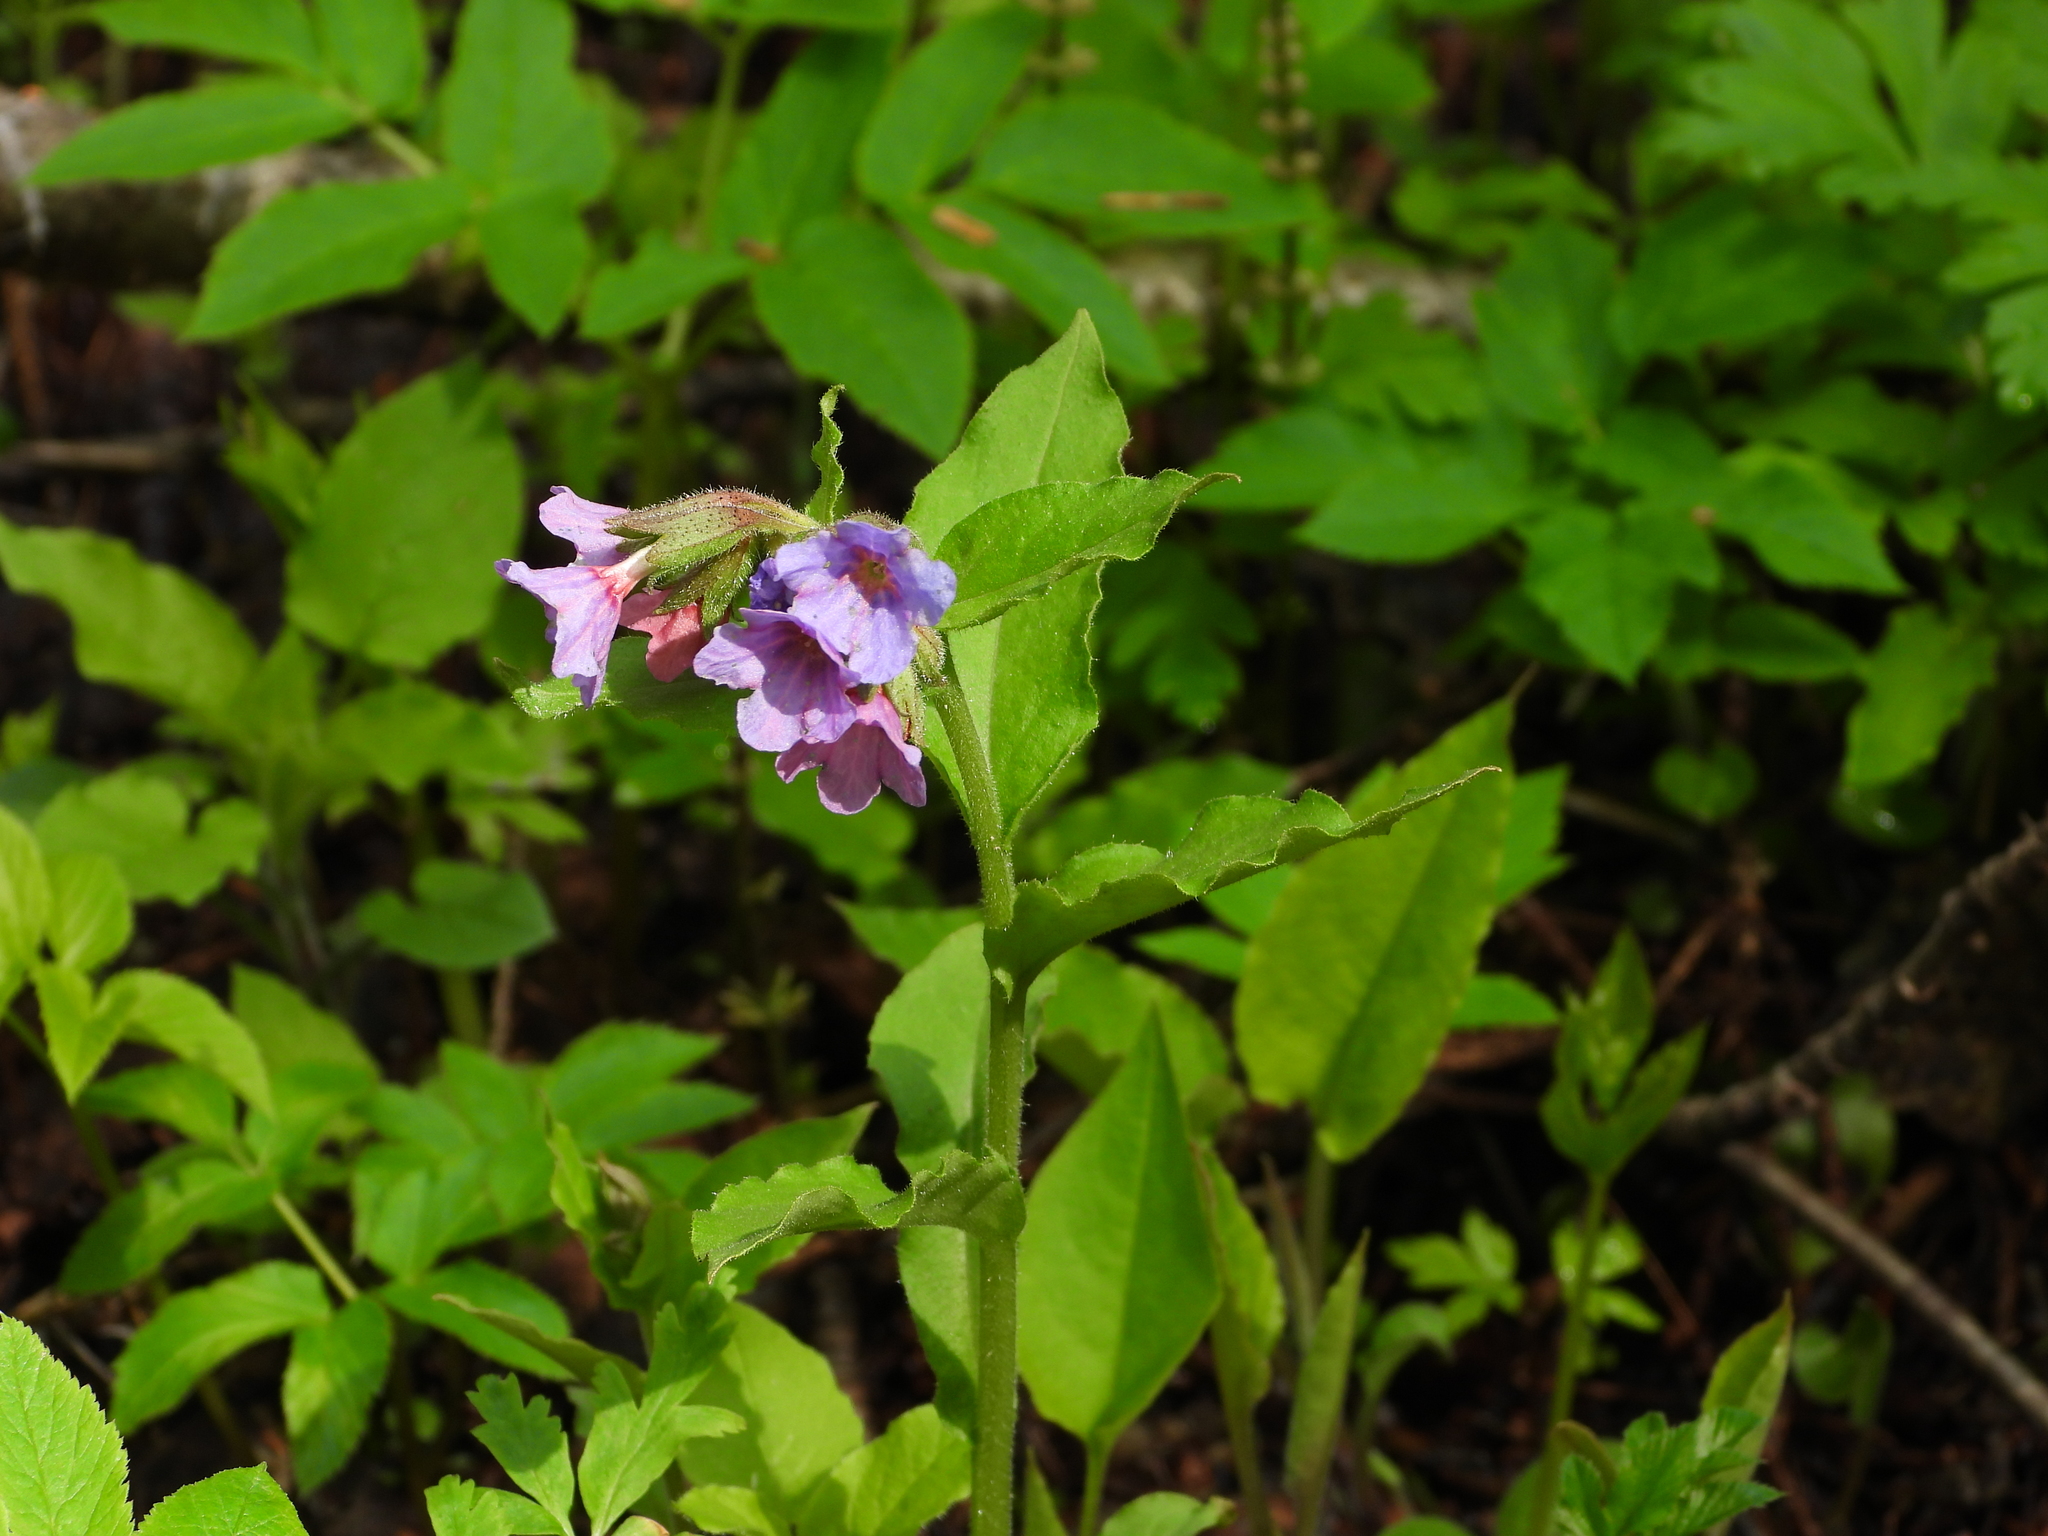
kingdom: Plantae
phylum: Tracheophyta
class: Magnoliopsida
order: Boraginales
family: Boraginaceae
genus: Pulmonaria
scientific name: Pulmonaria obscura
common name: Suffolk lungwort
